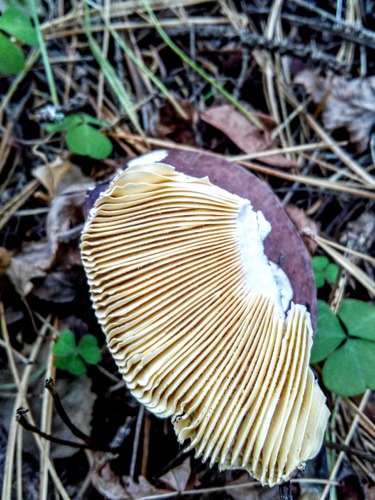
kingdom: Fungi
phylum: Basidiomycota
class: Agaricomycetes
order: Russulales
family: Russulaceae
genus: Russula
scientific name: Russula
